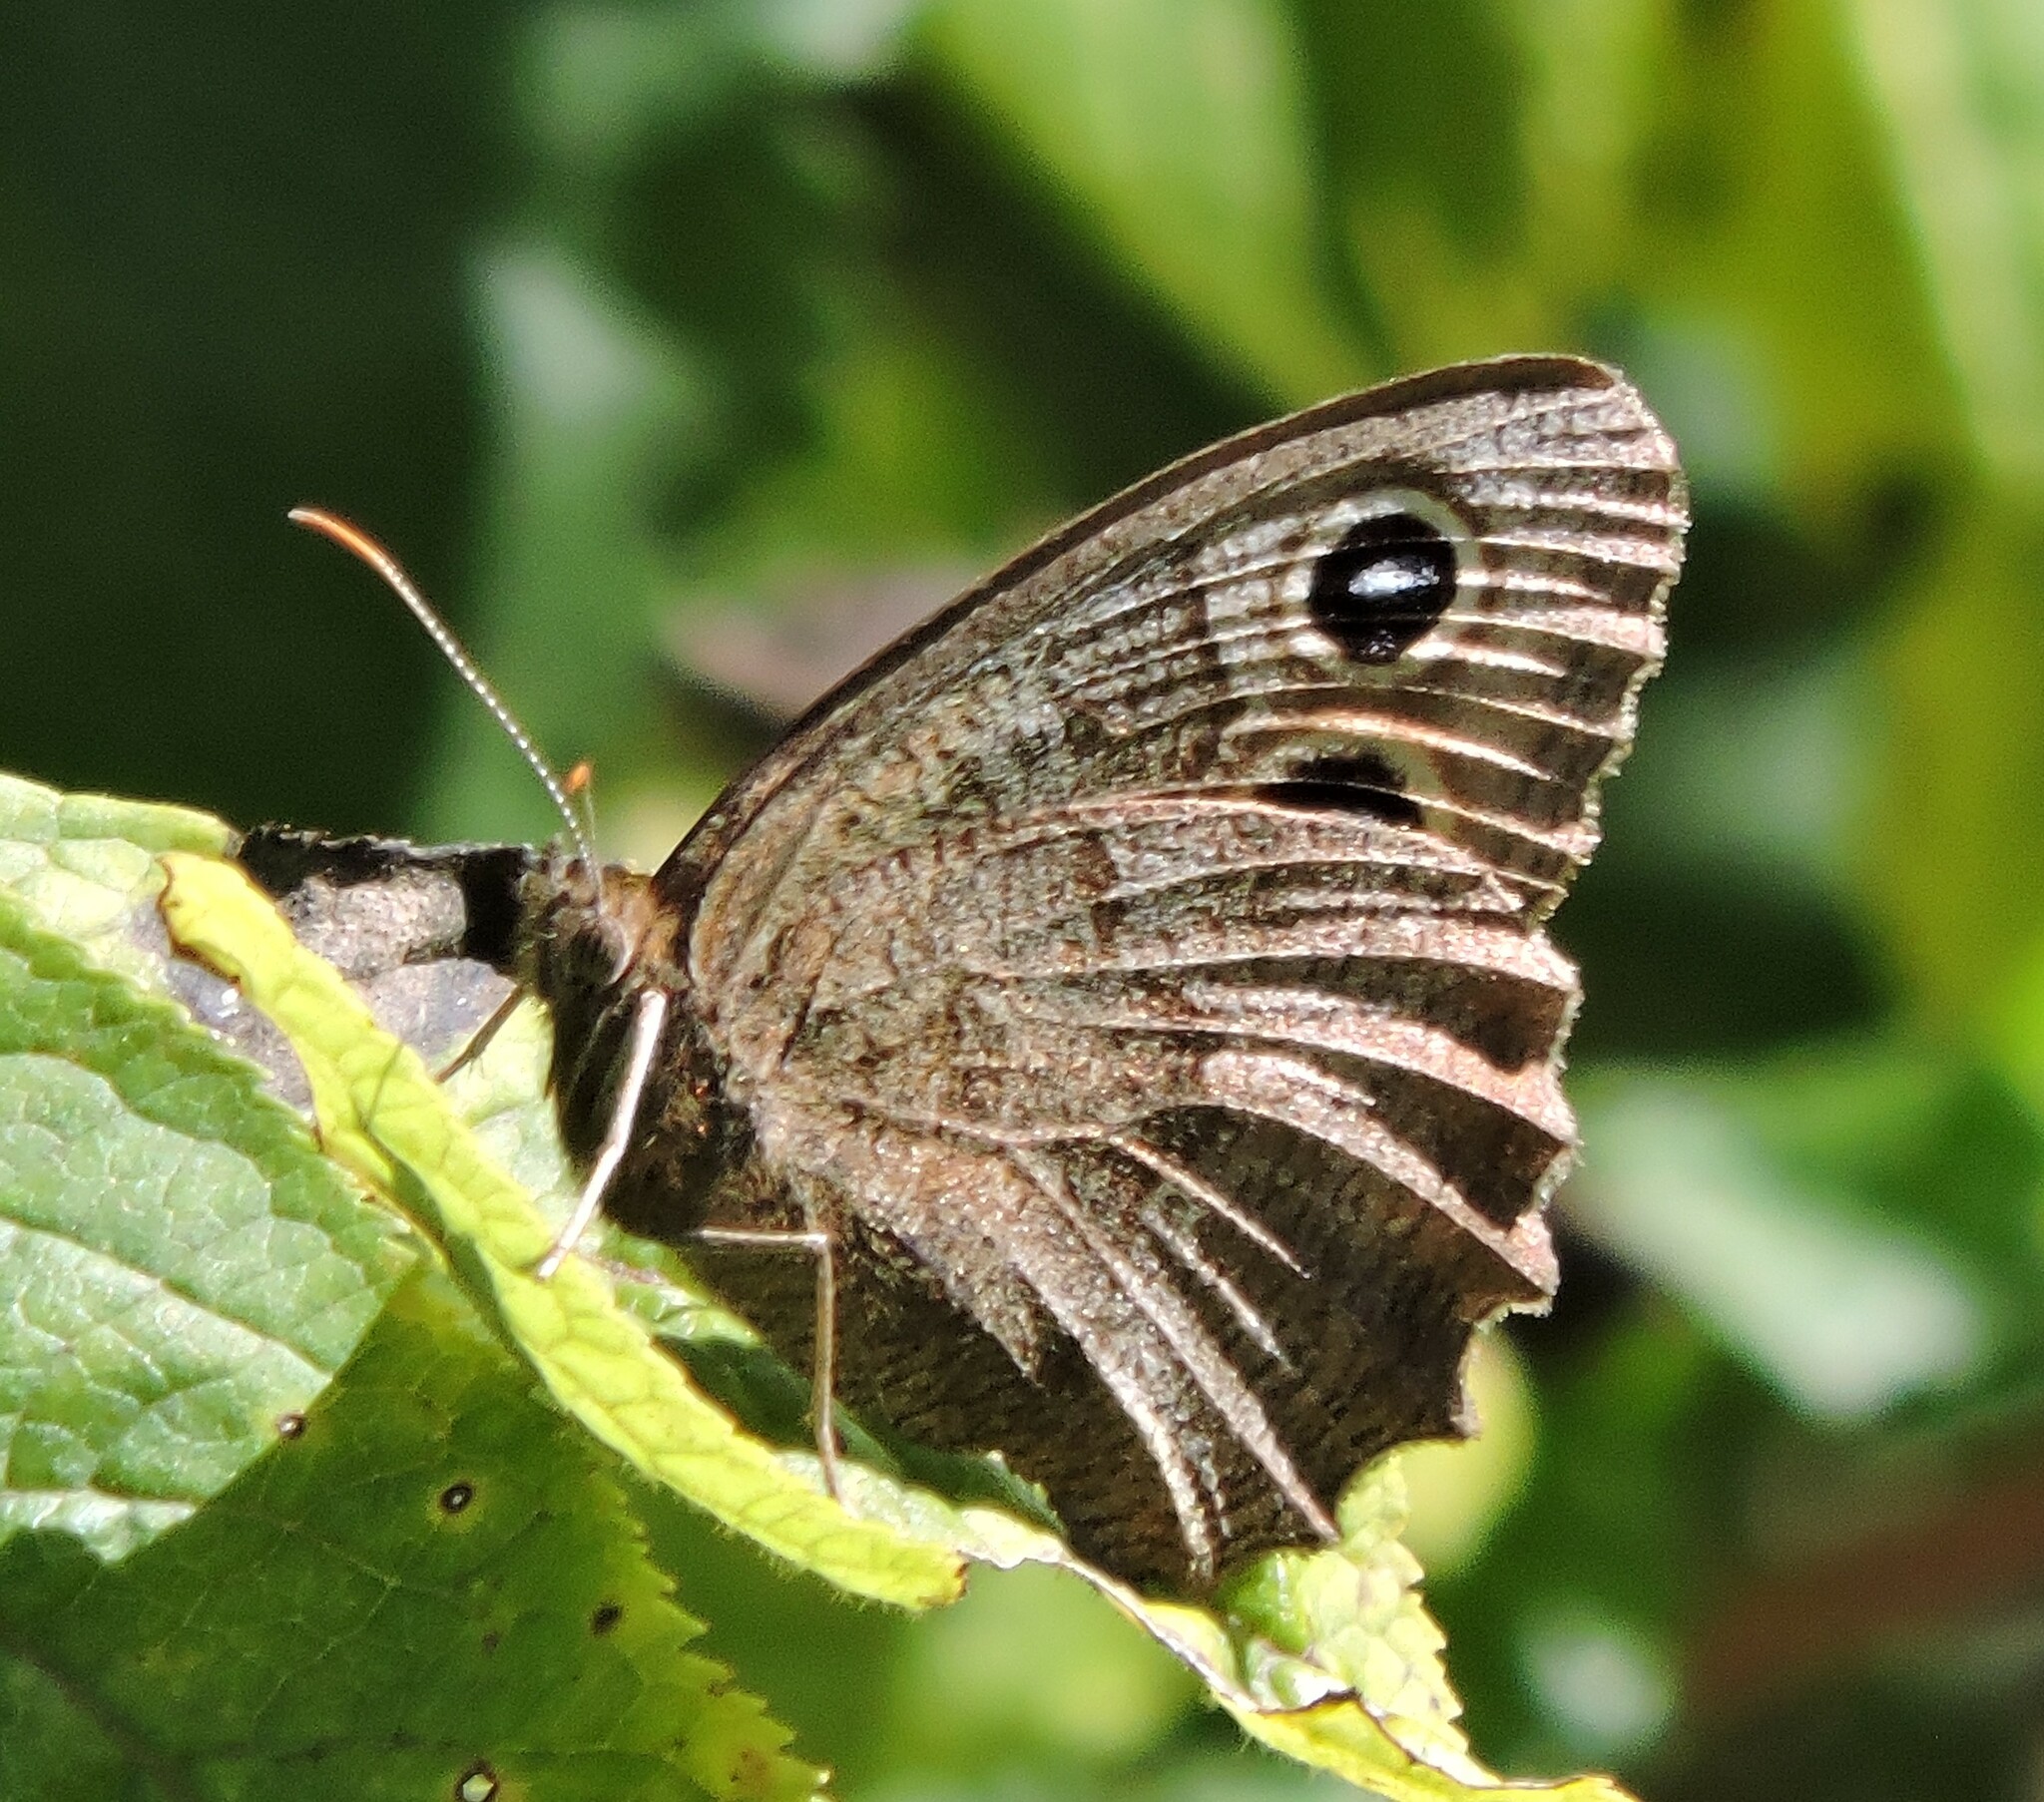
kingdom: Animalia
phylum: Arthropoda
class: Insecta
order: Lepidoptera
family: Nymphalidae
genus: Cercyonis
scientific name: Cercyonis pegala
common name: Common wood-nymph
